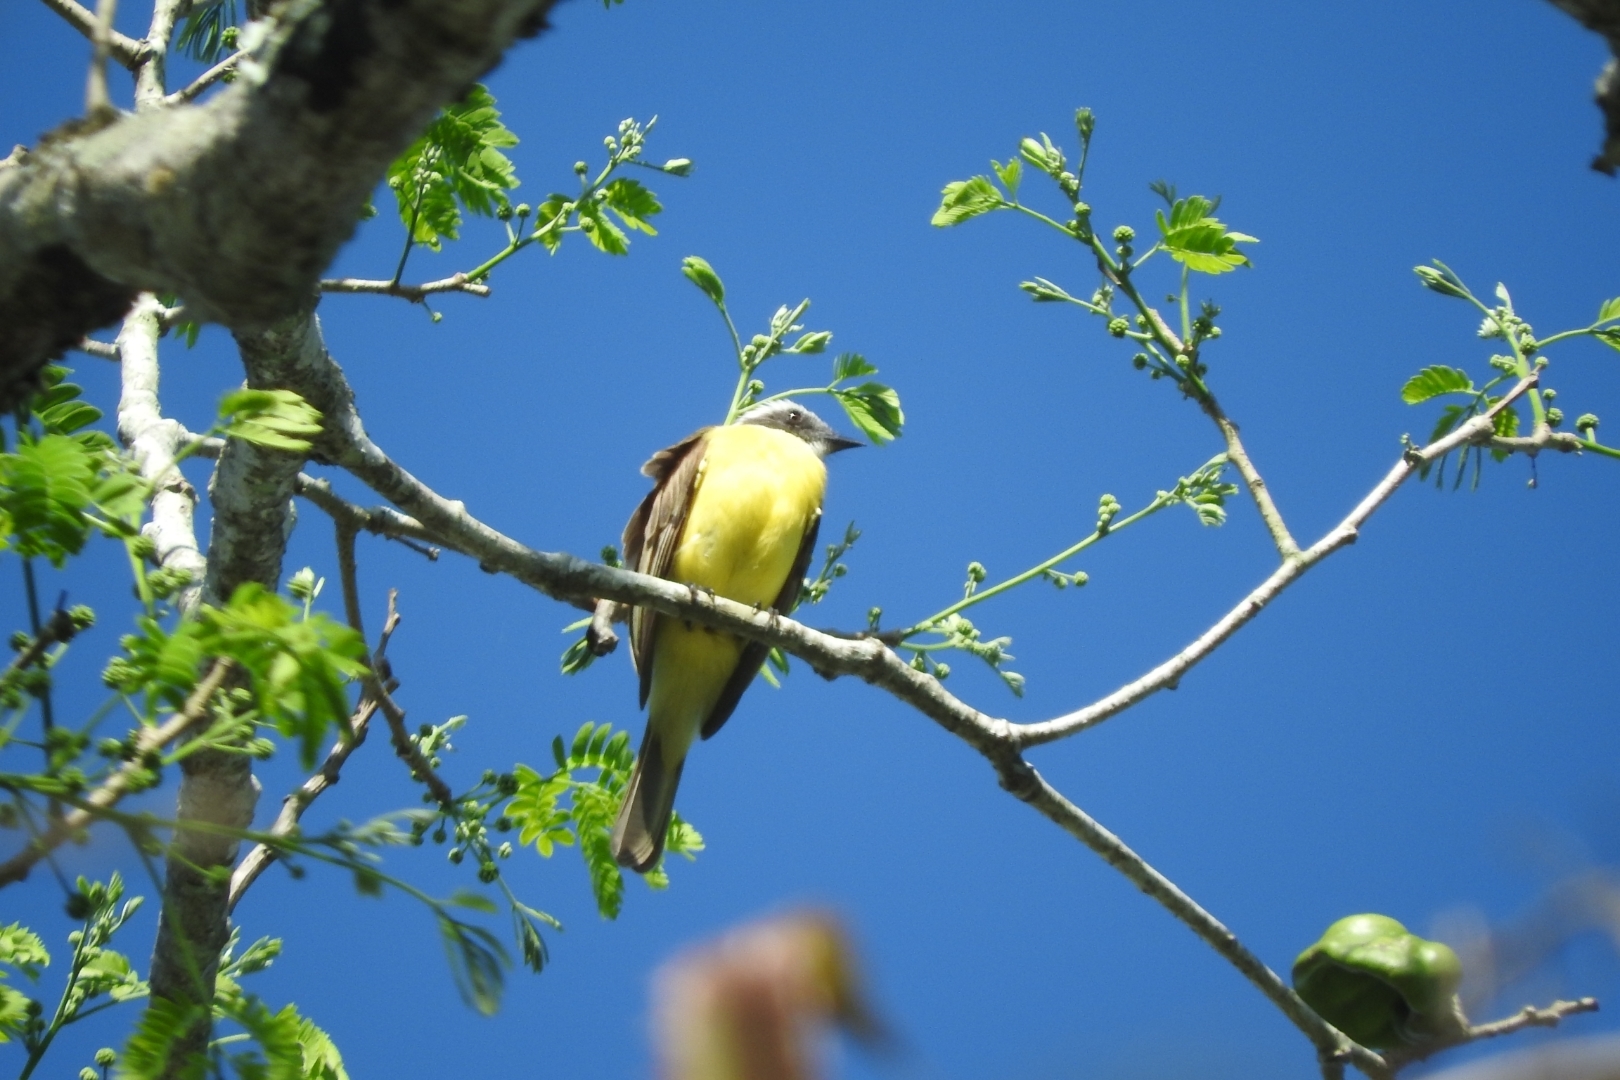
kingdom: Animalia
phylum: Chordata
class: Aves
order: Passeriformes
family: Tyrannidae
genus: Myiozetetes
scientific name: Myiozetetes similis
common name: Social flycatcher
